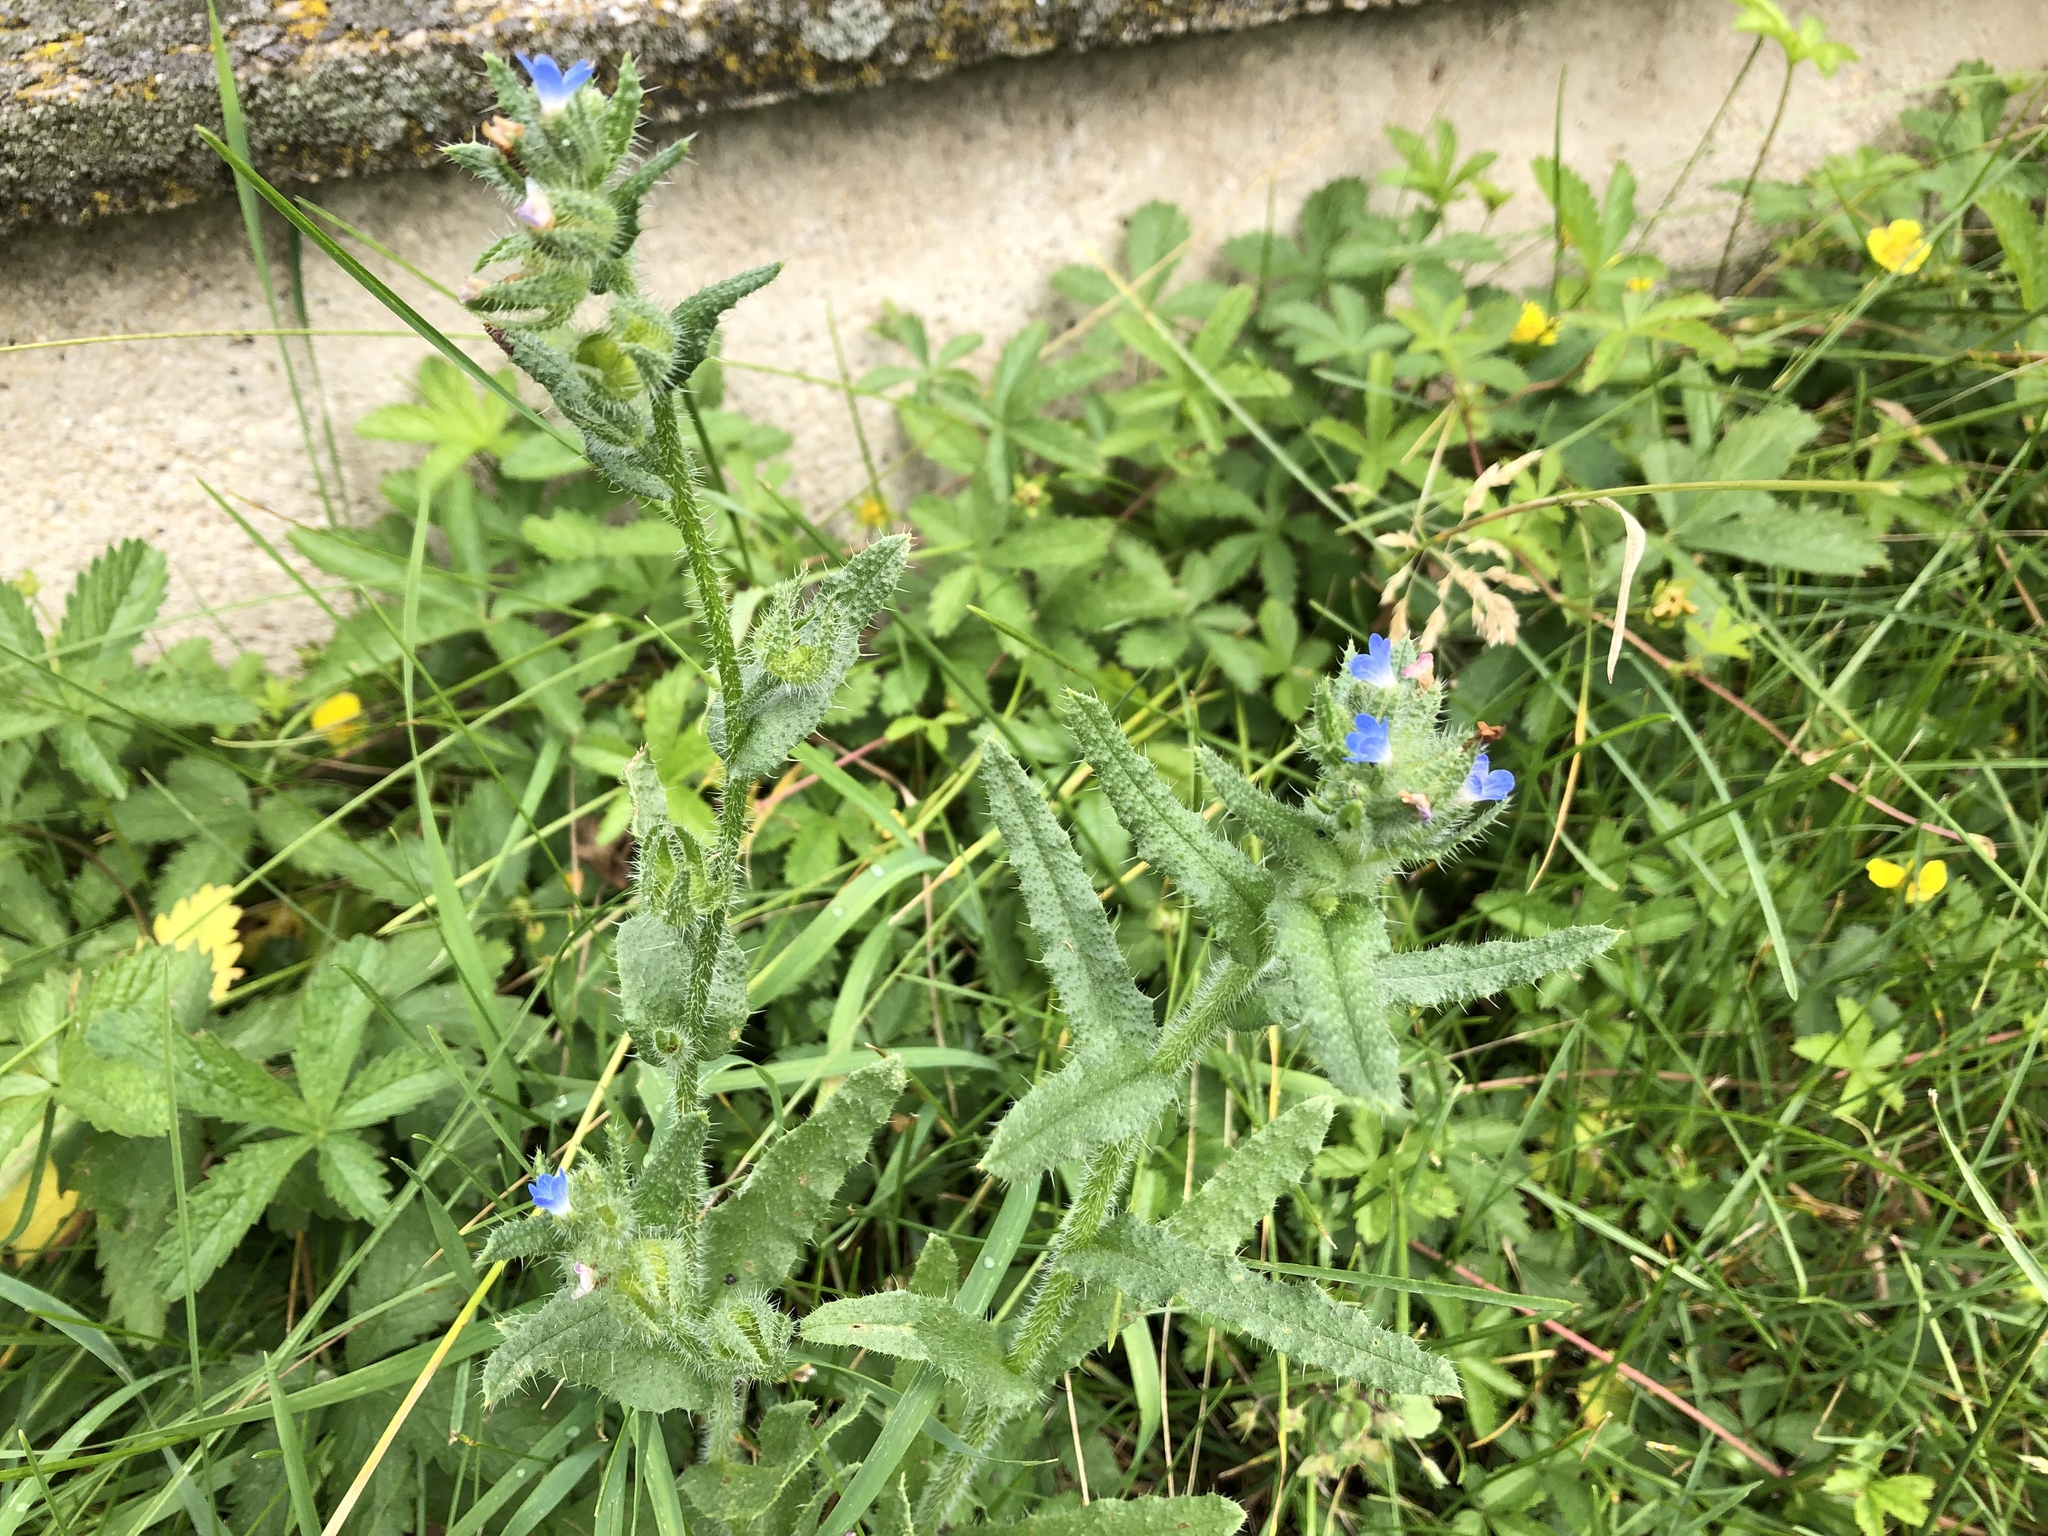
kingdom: Plantae
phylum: Tracheophyta
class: Magnoliopsida
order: Boraginales
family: Boraginaceae
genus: Lycopsis
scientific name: Lycopsis arvensis
